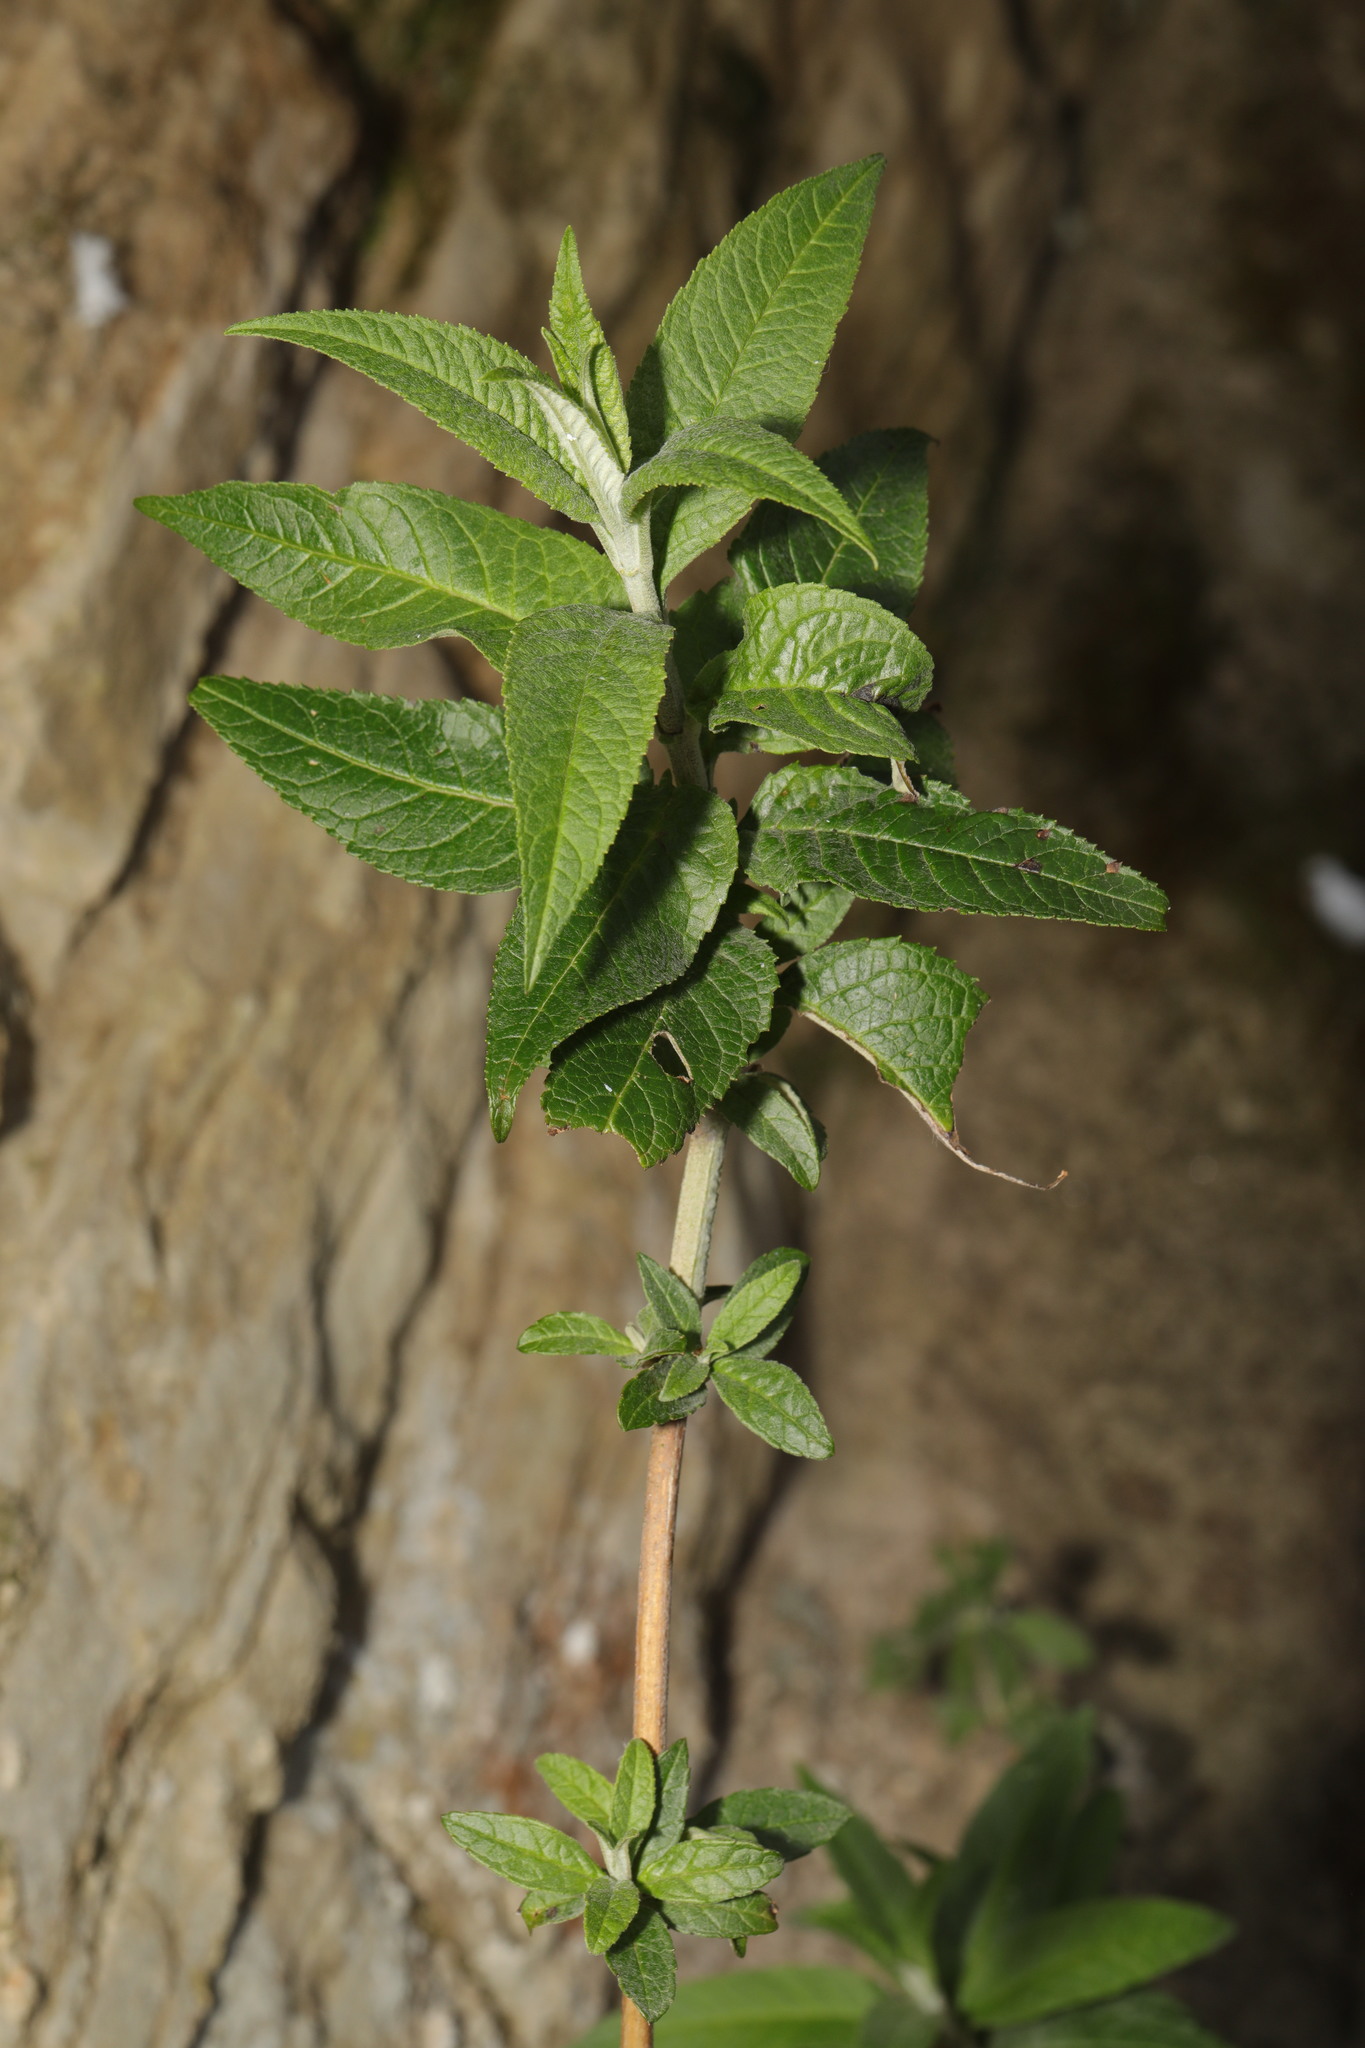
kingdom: Plantae
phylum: Tracheophyta
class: Magnoliopsida
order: Lamiales
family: Scrophulariaceae
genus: Buddleja
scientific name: Buddleja davidii
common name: Butterfly-bush
